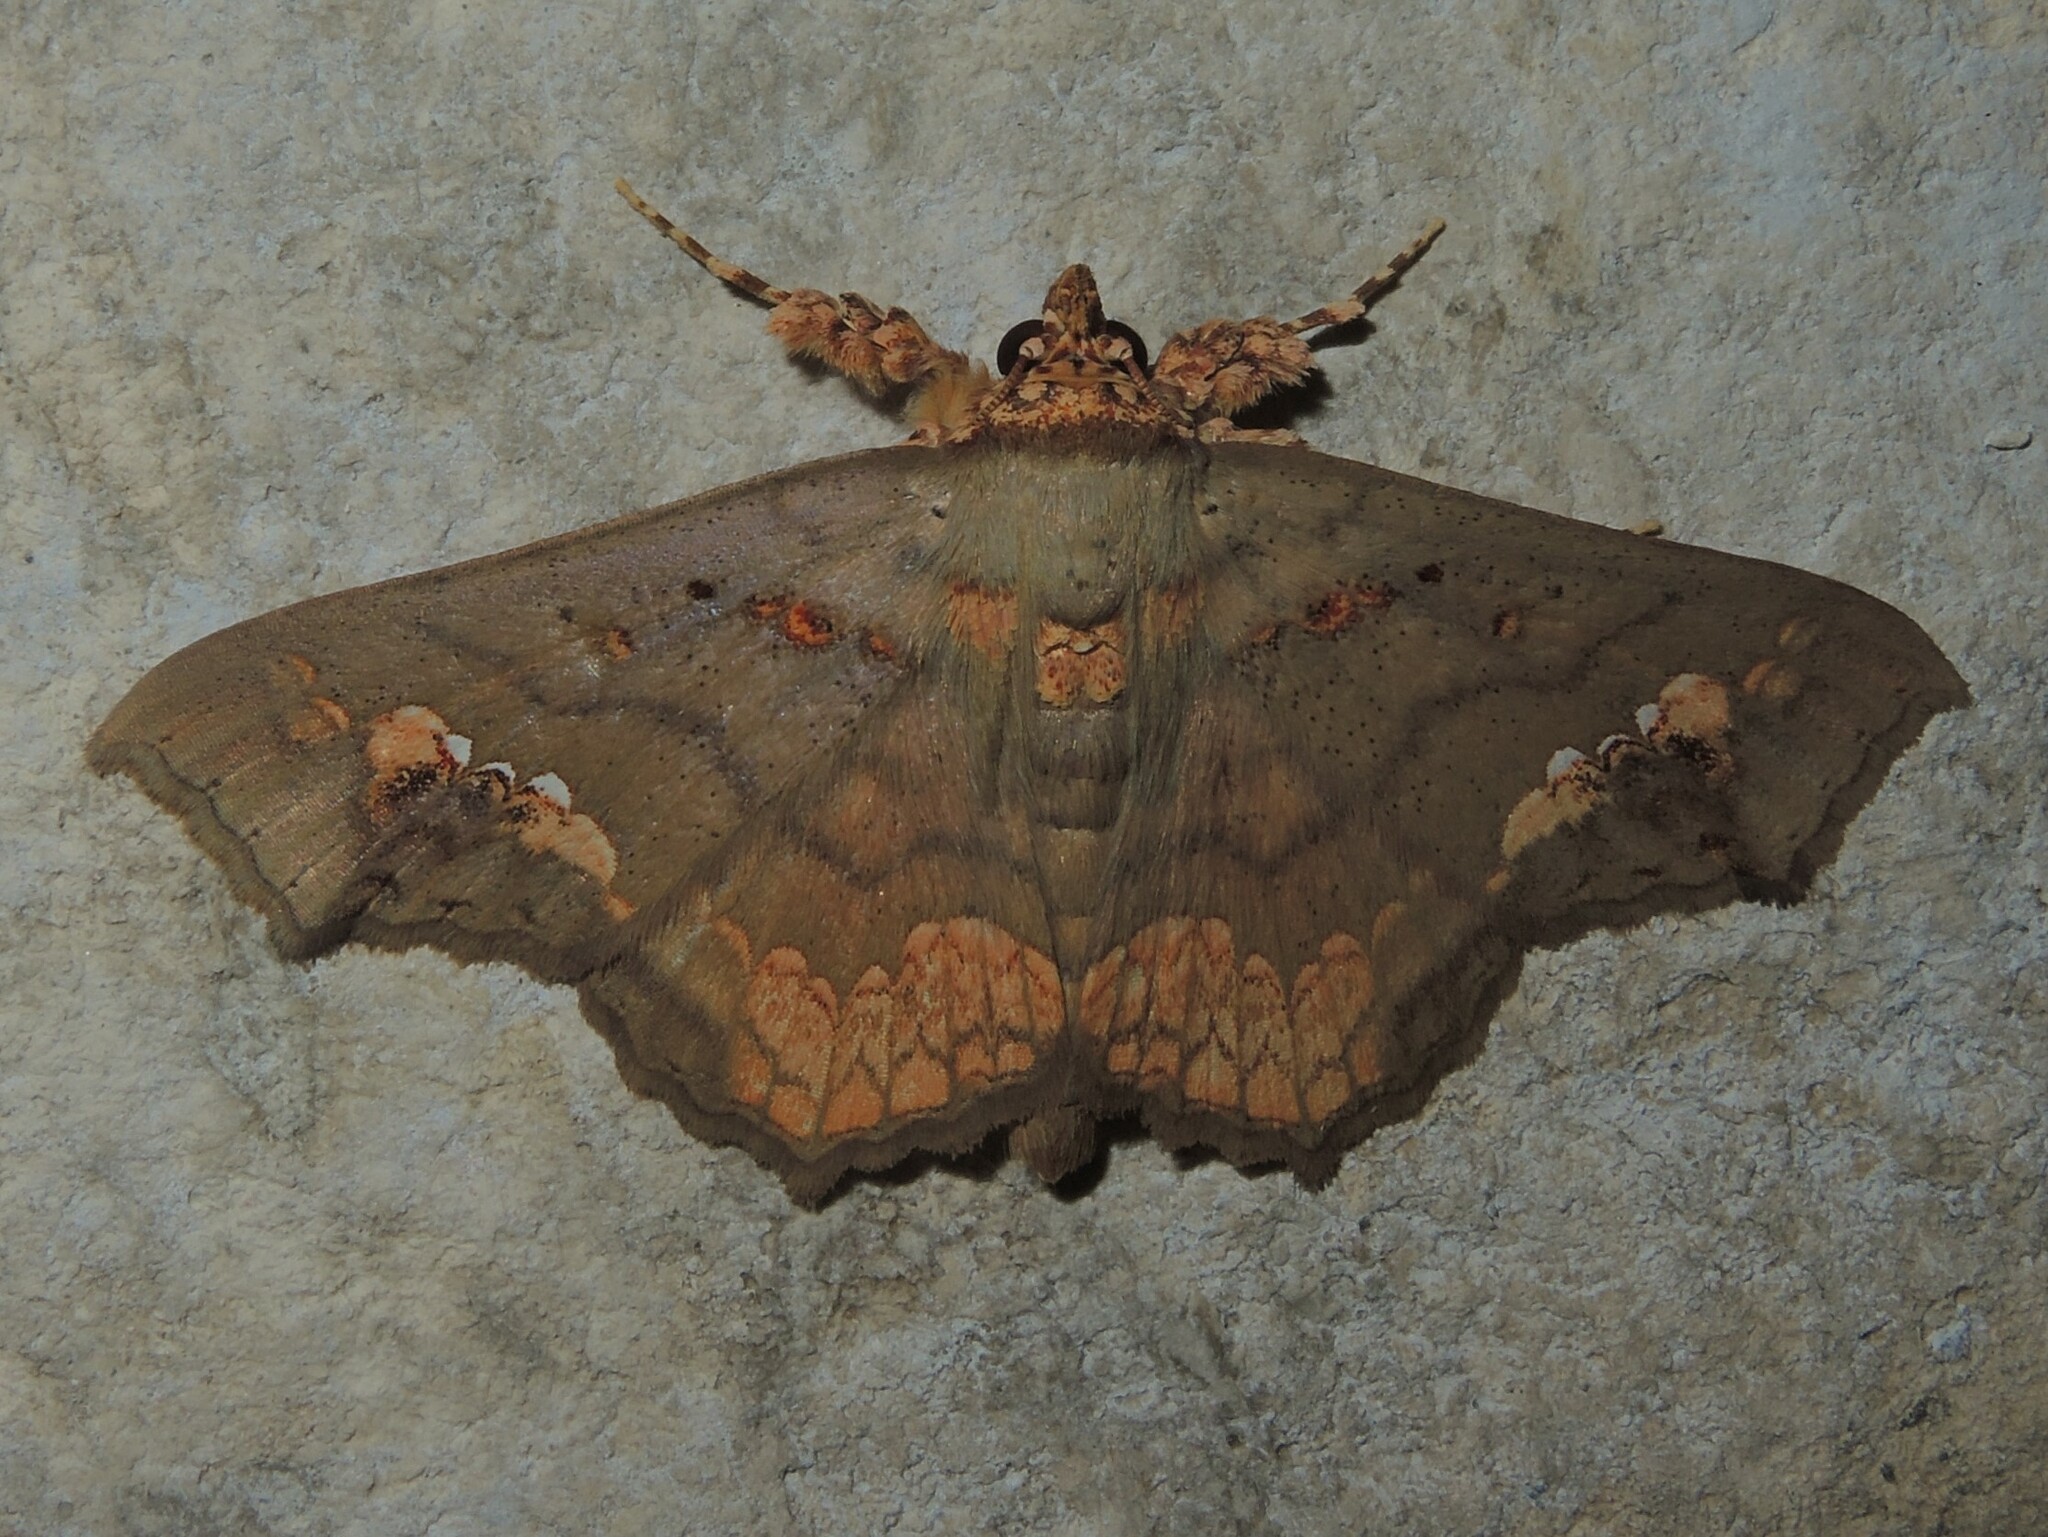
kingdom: Animalia
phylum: Arthropoda
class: Insecta
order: Lepidoptera
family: Erebidae
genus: Lopharthrum
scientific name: Lopharthrum comprimens
